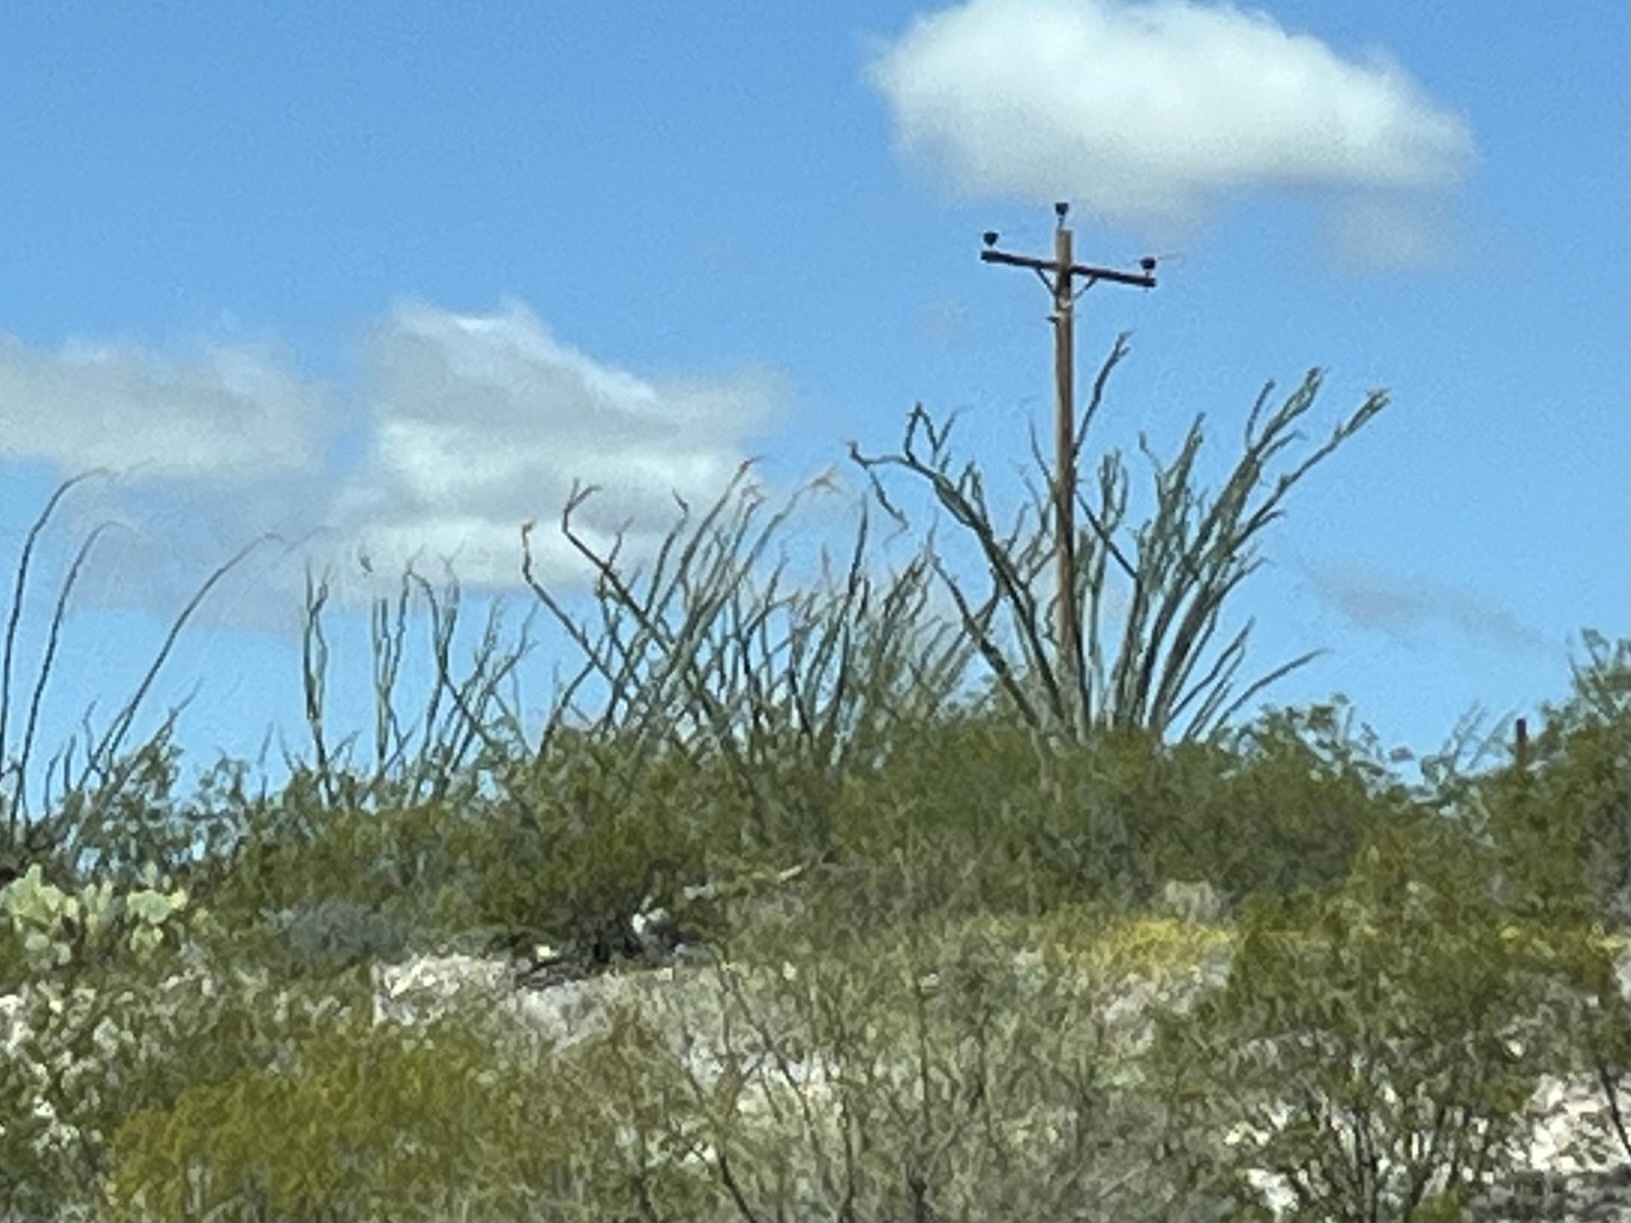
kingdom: Plantae
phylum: Tracheophyta
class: Magnoliopsida
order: Ericales
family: Fouquieriaceae
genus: Fouquieria
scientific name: Fouquieria splendens
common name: Vine-cactus
